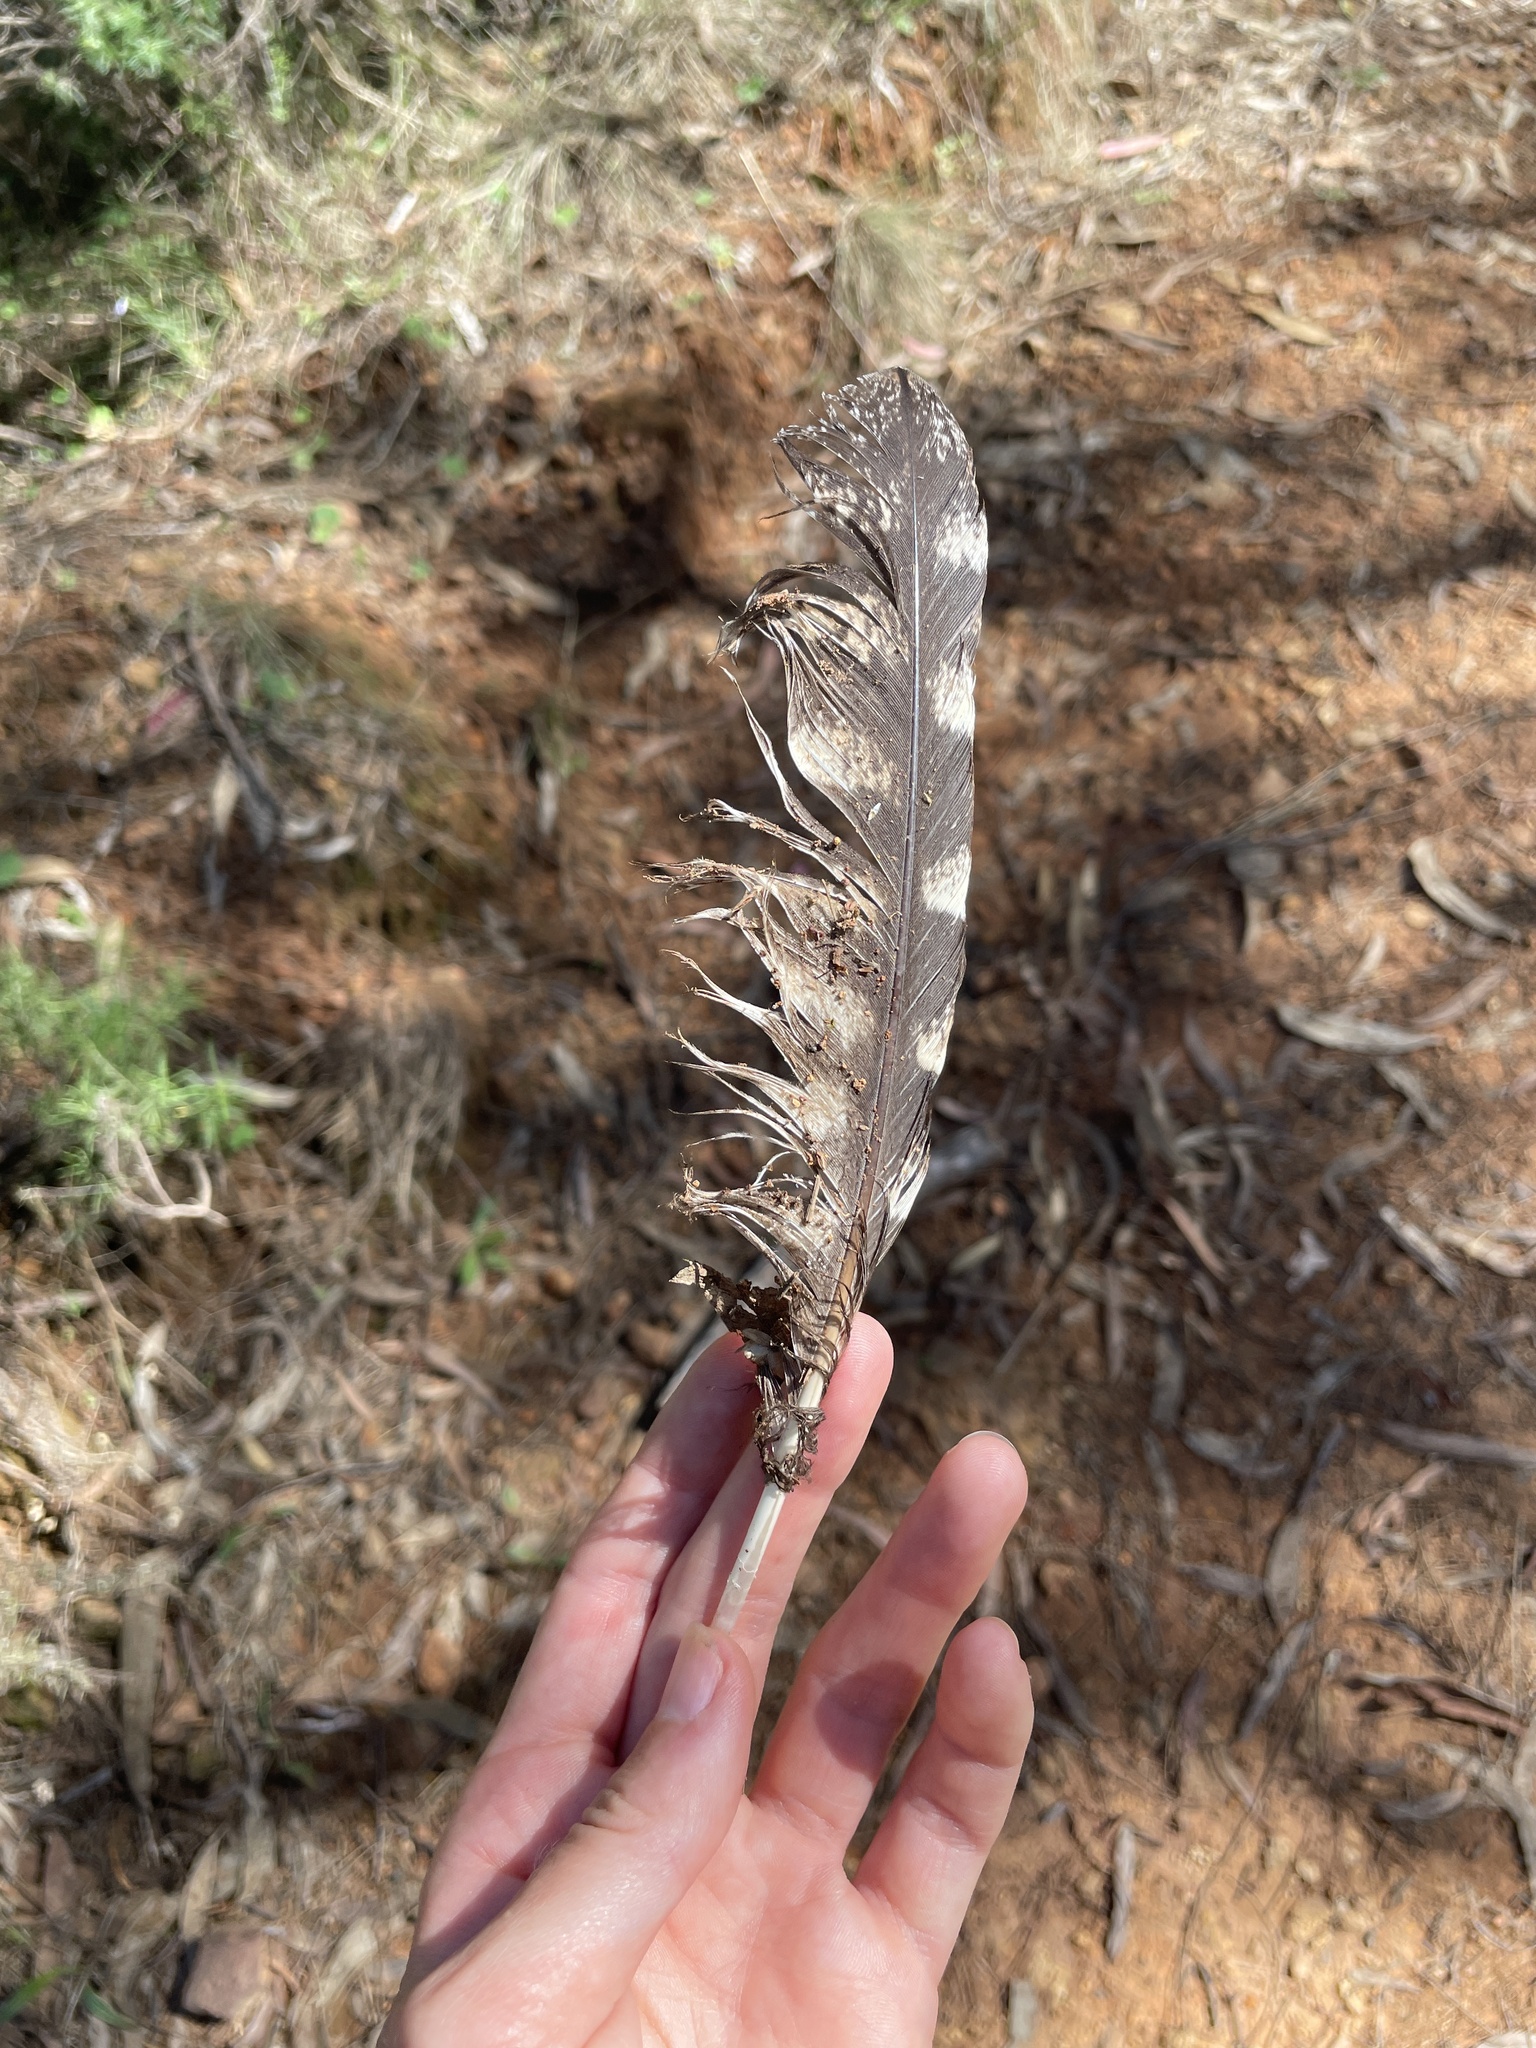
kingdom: Animalia
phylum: Chordata
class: Aves
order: Caprimulgiformes
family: Podargidae
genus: Podargus
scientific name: Podargus strigoides
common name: Tawny frogmouth
